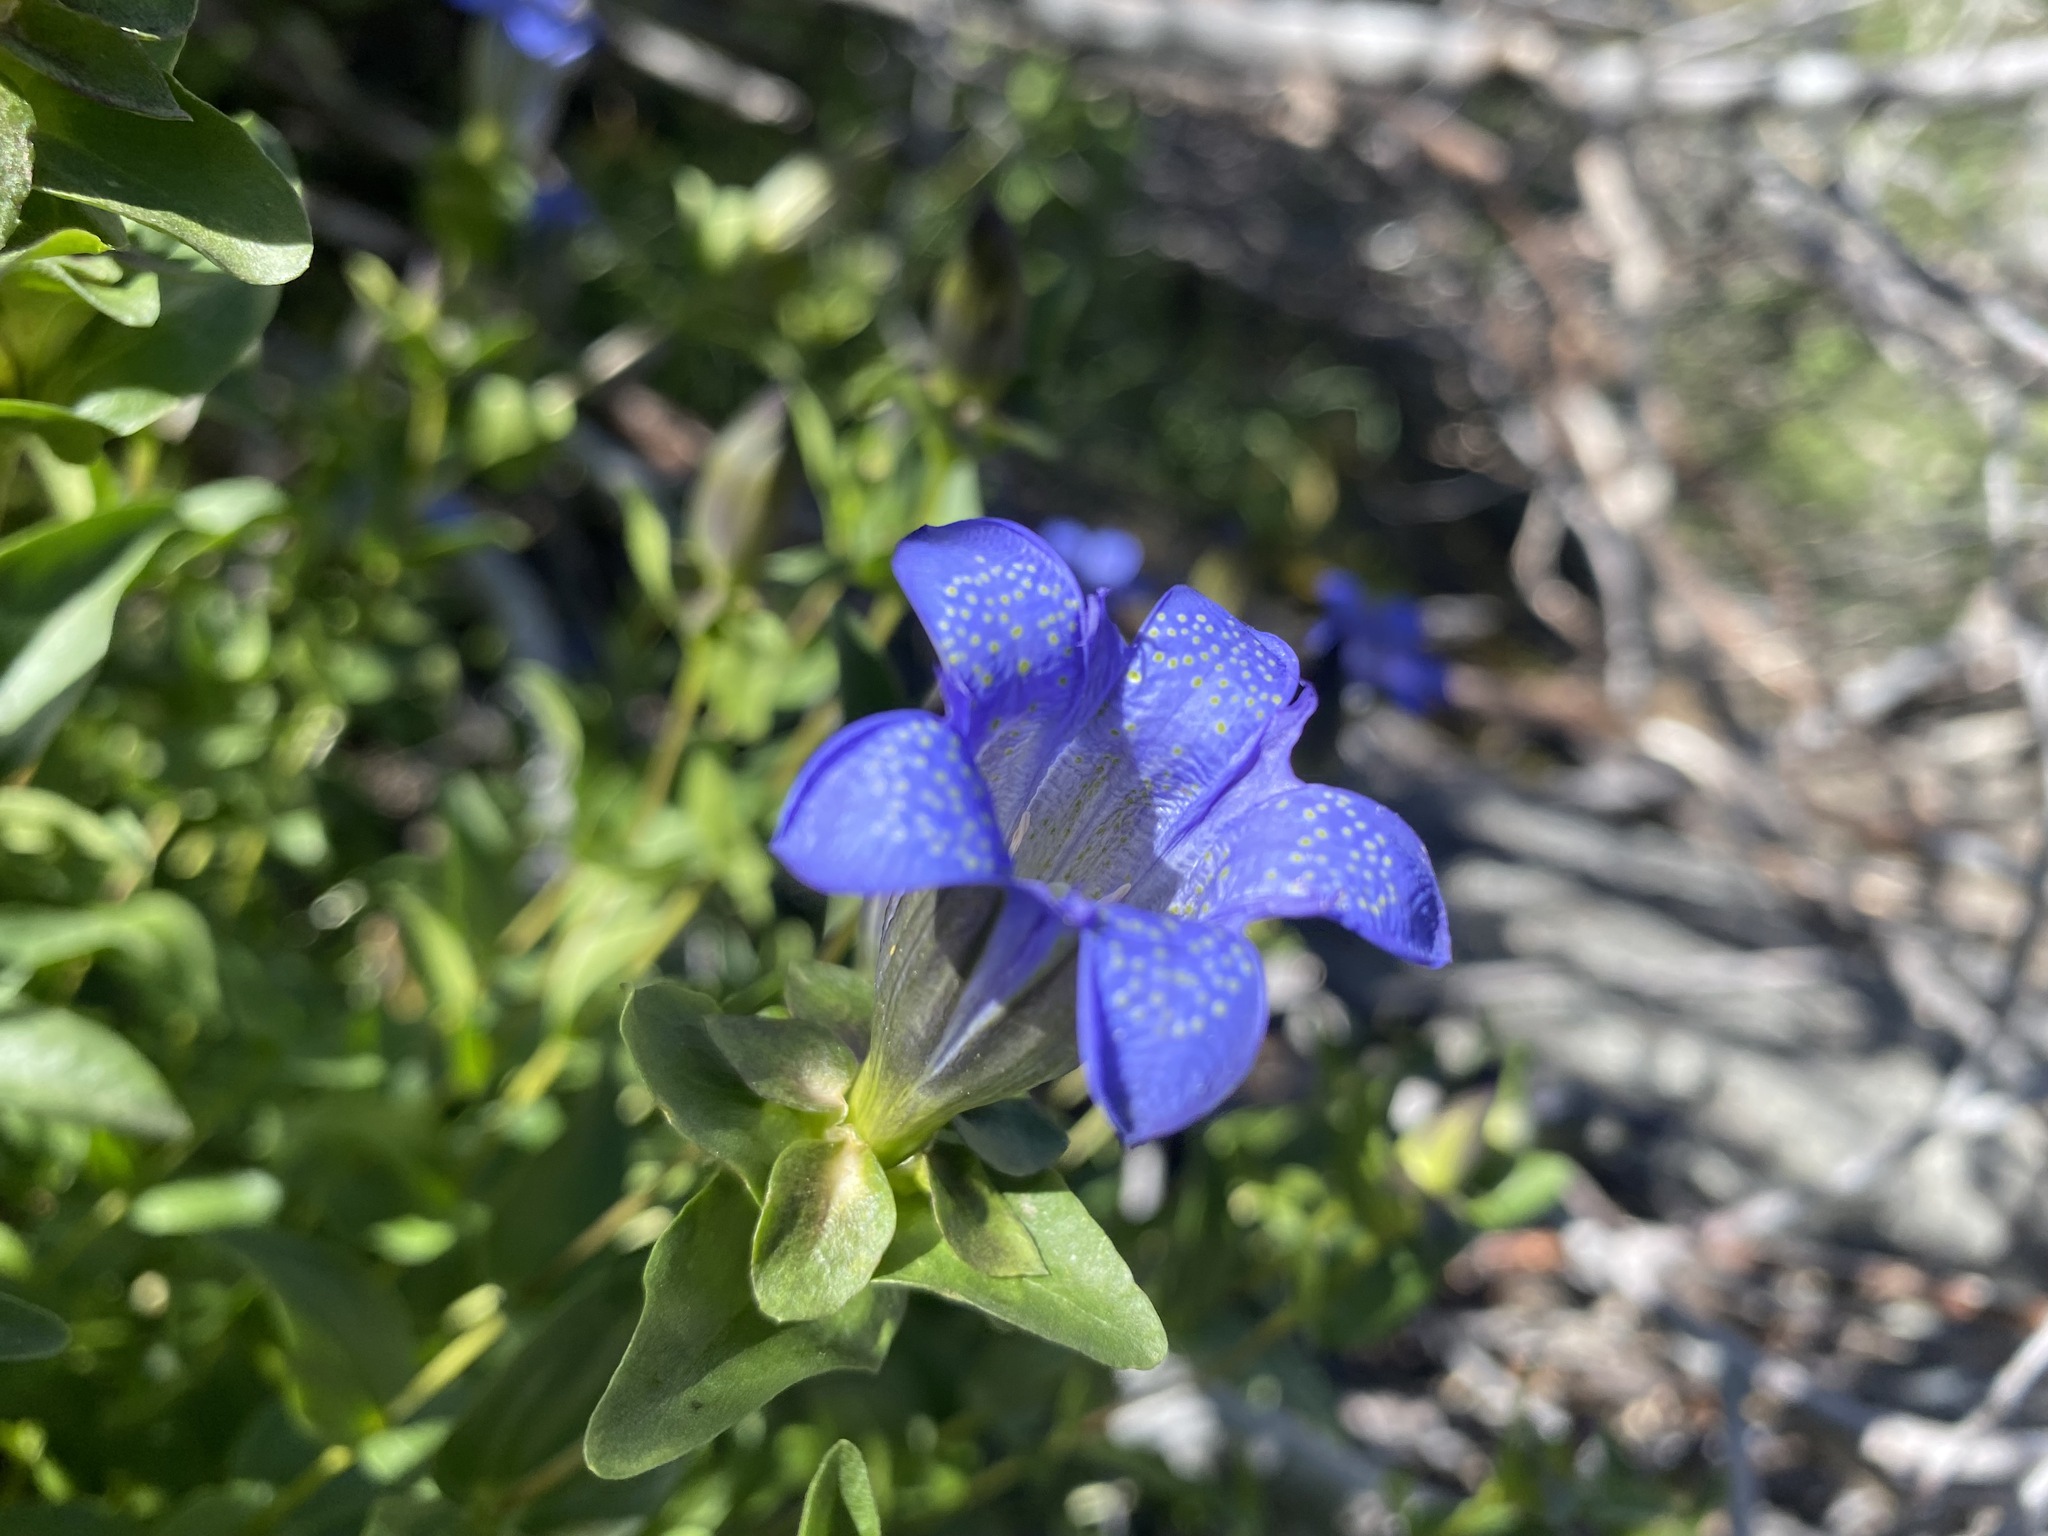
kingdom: Plantae
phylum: Tracheophyta
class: Magnoliopsida
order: Gentianales
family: Gentianaceae
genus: Gentiana
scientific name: Gentiana calycosa
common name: Rainier pleated gentian
